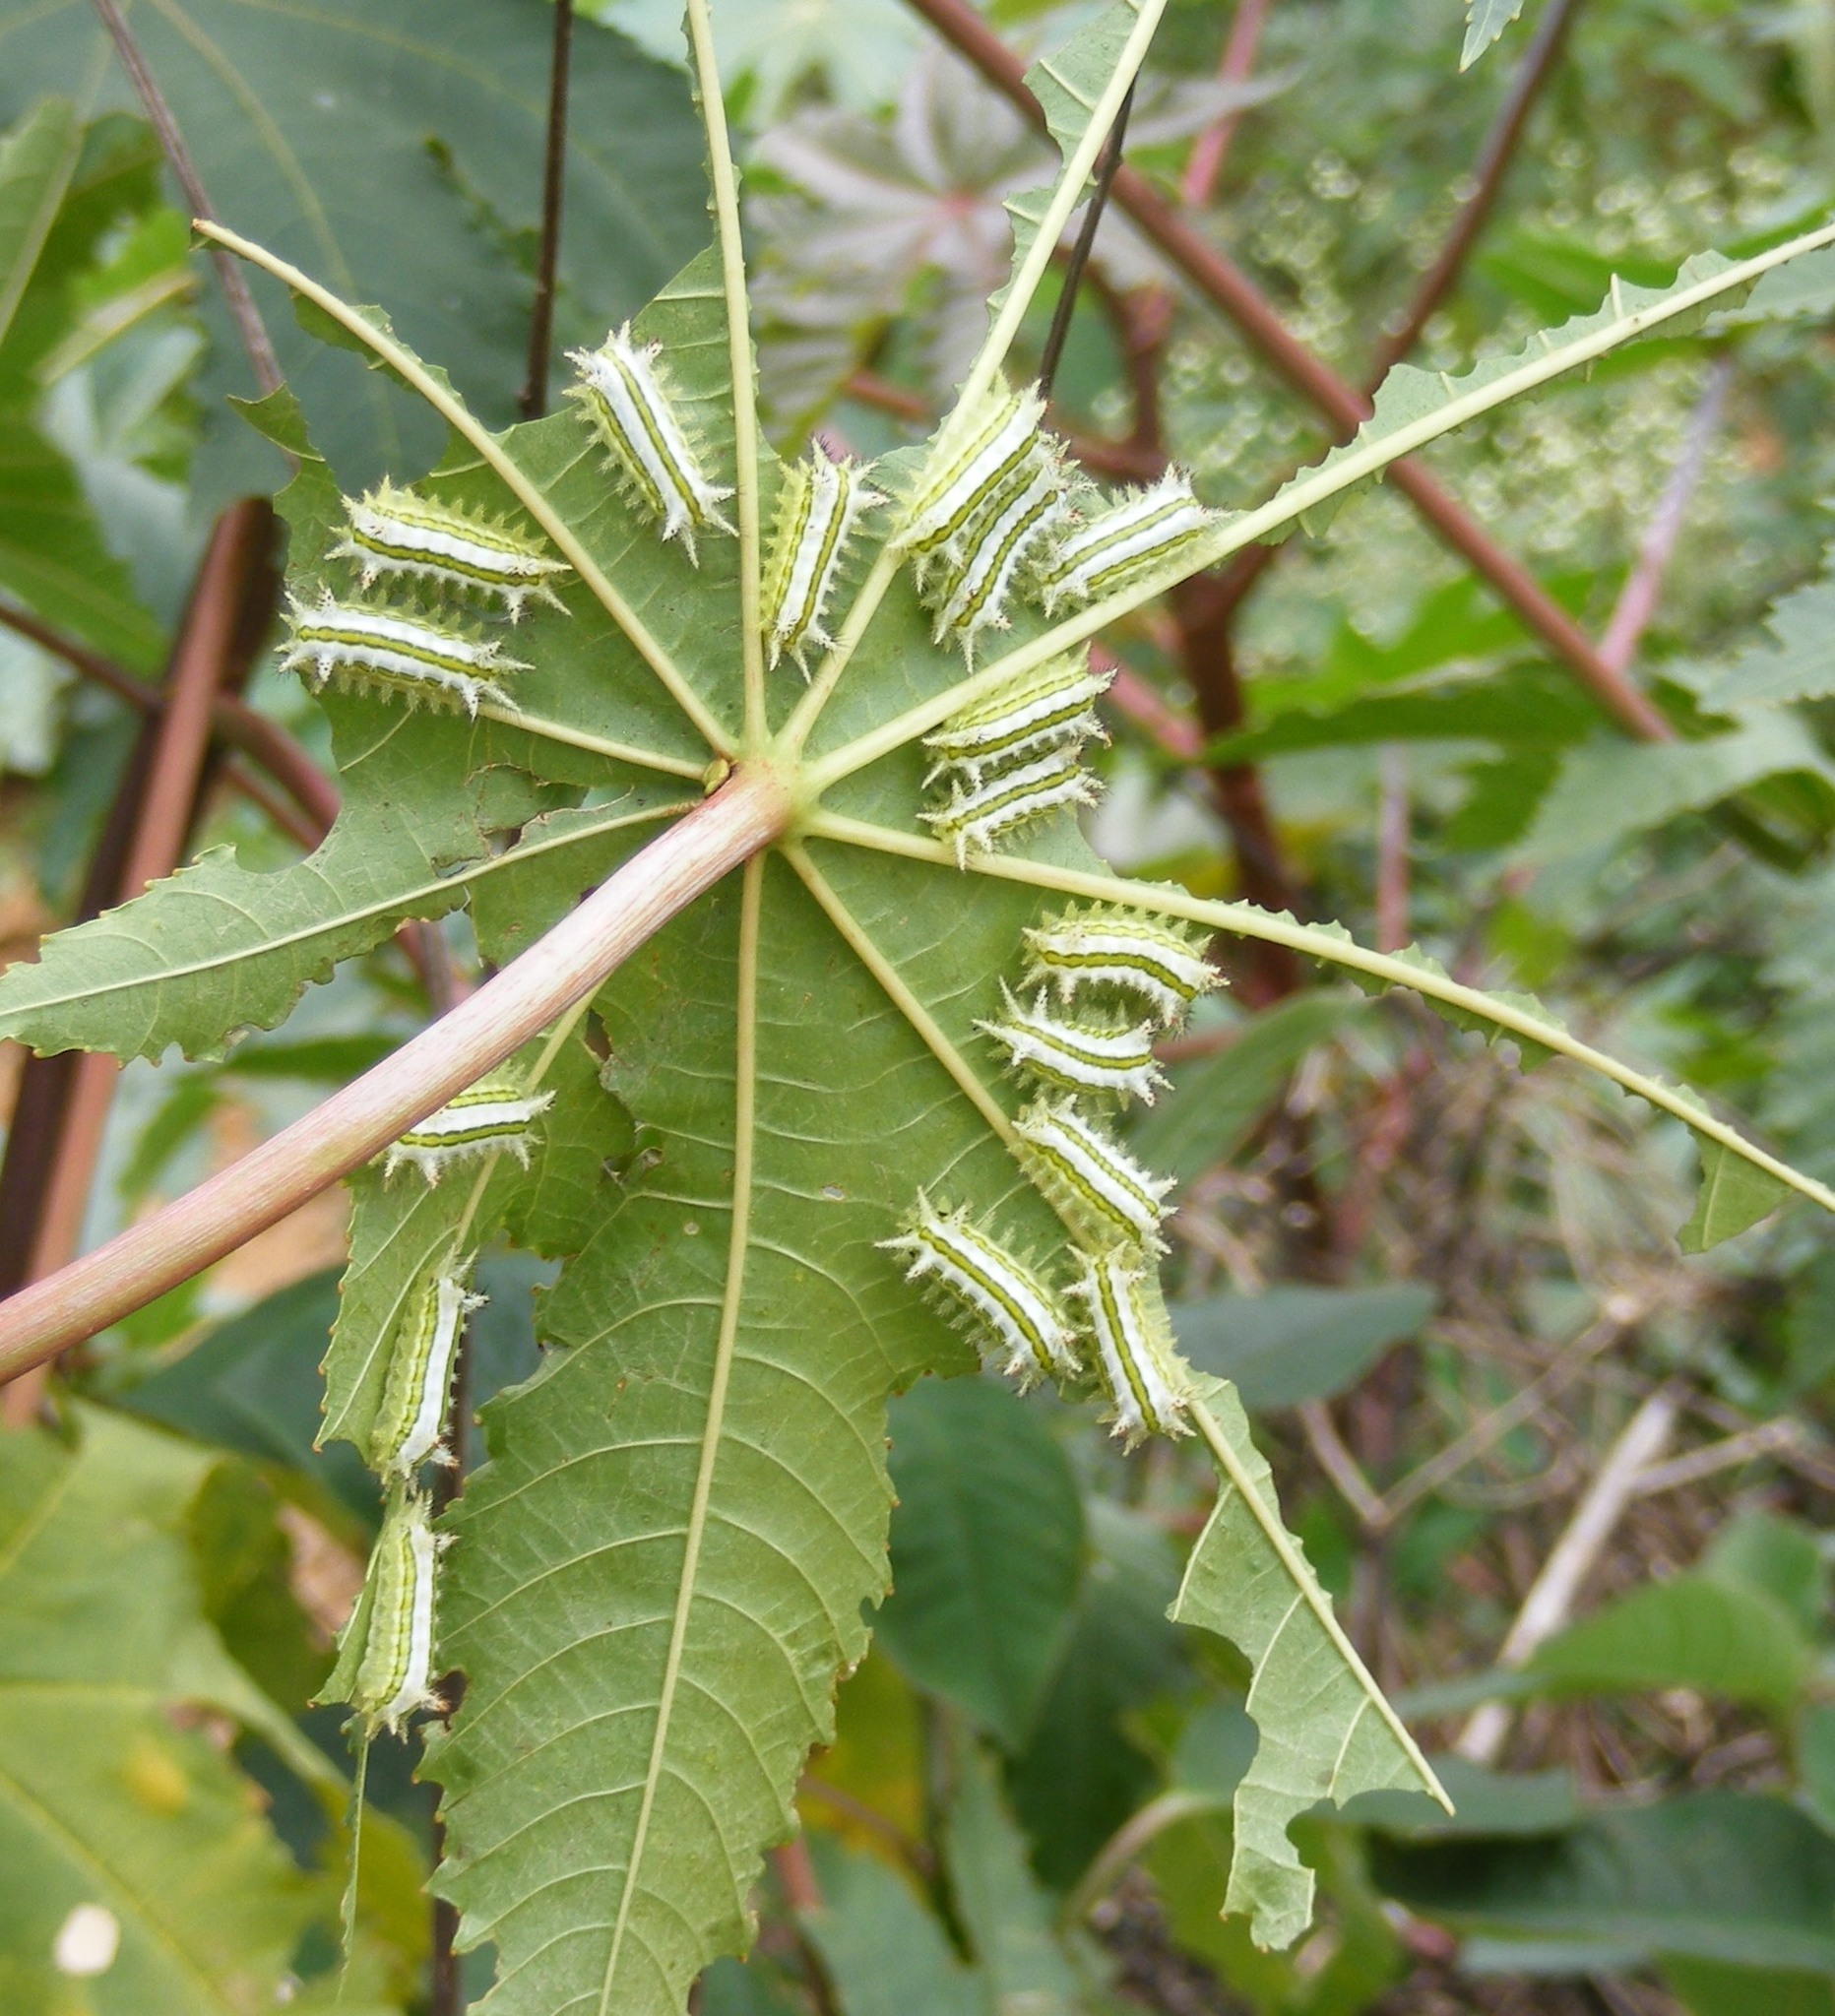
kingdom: Animalia
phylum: Arthropoda
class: Insecta
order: Lepidoptera
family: Limacodidae
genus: Parasa
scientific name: Parasa lepida
